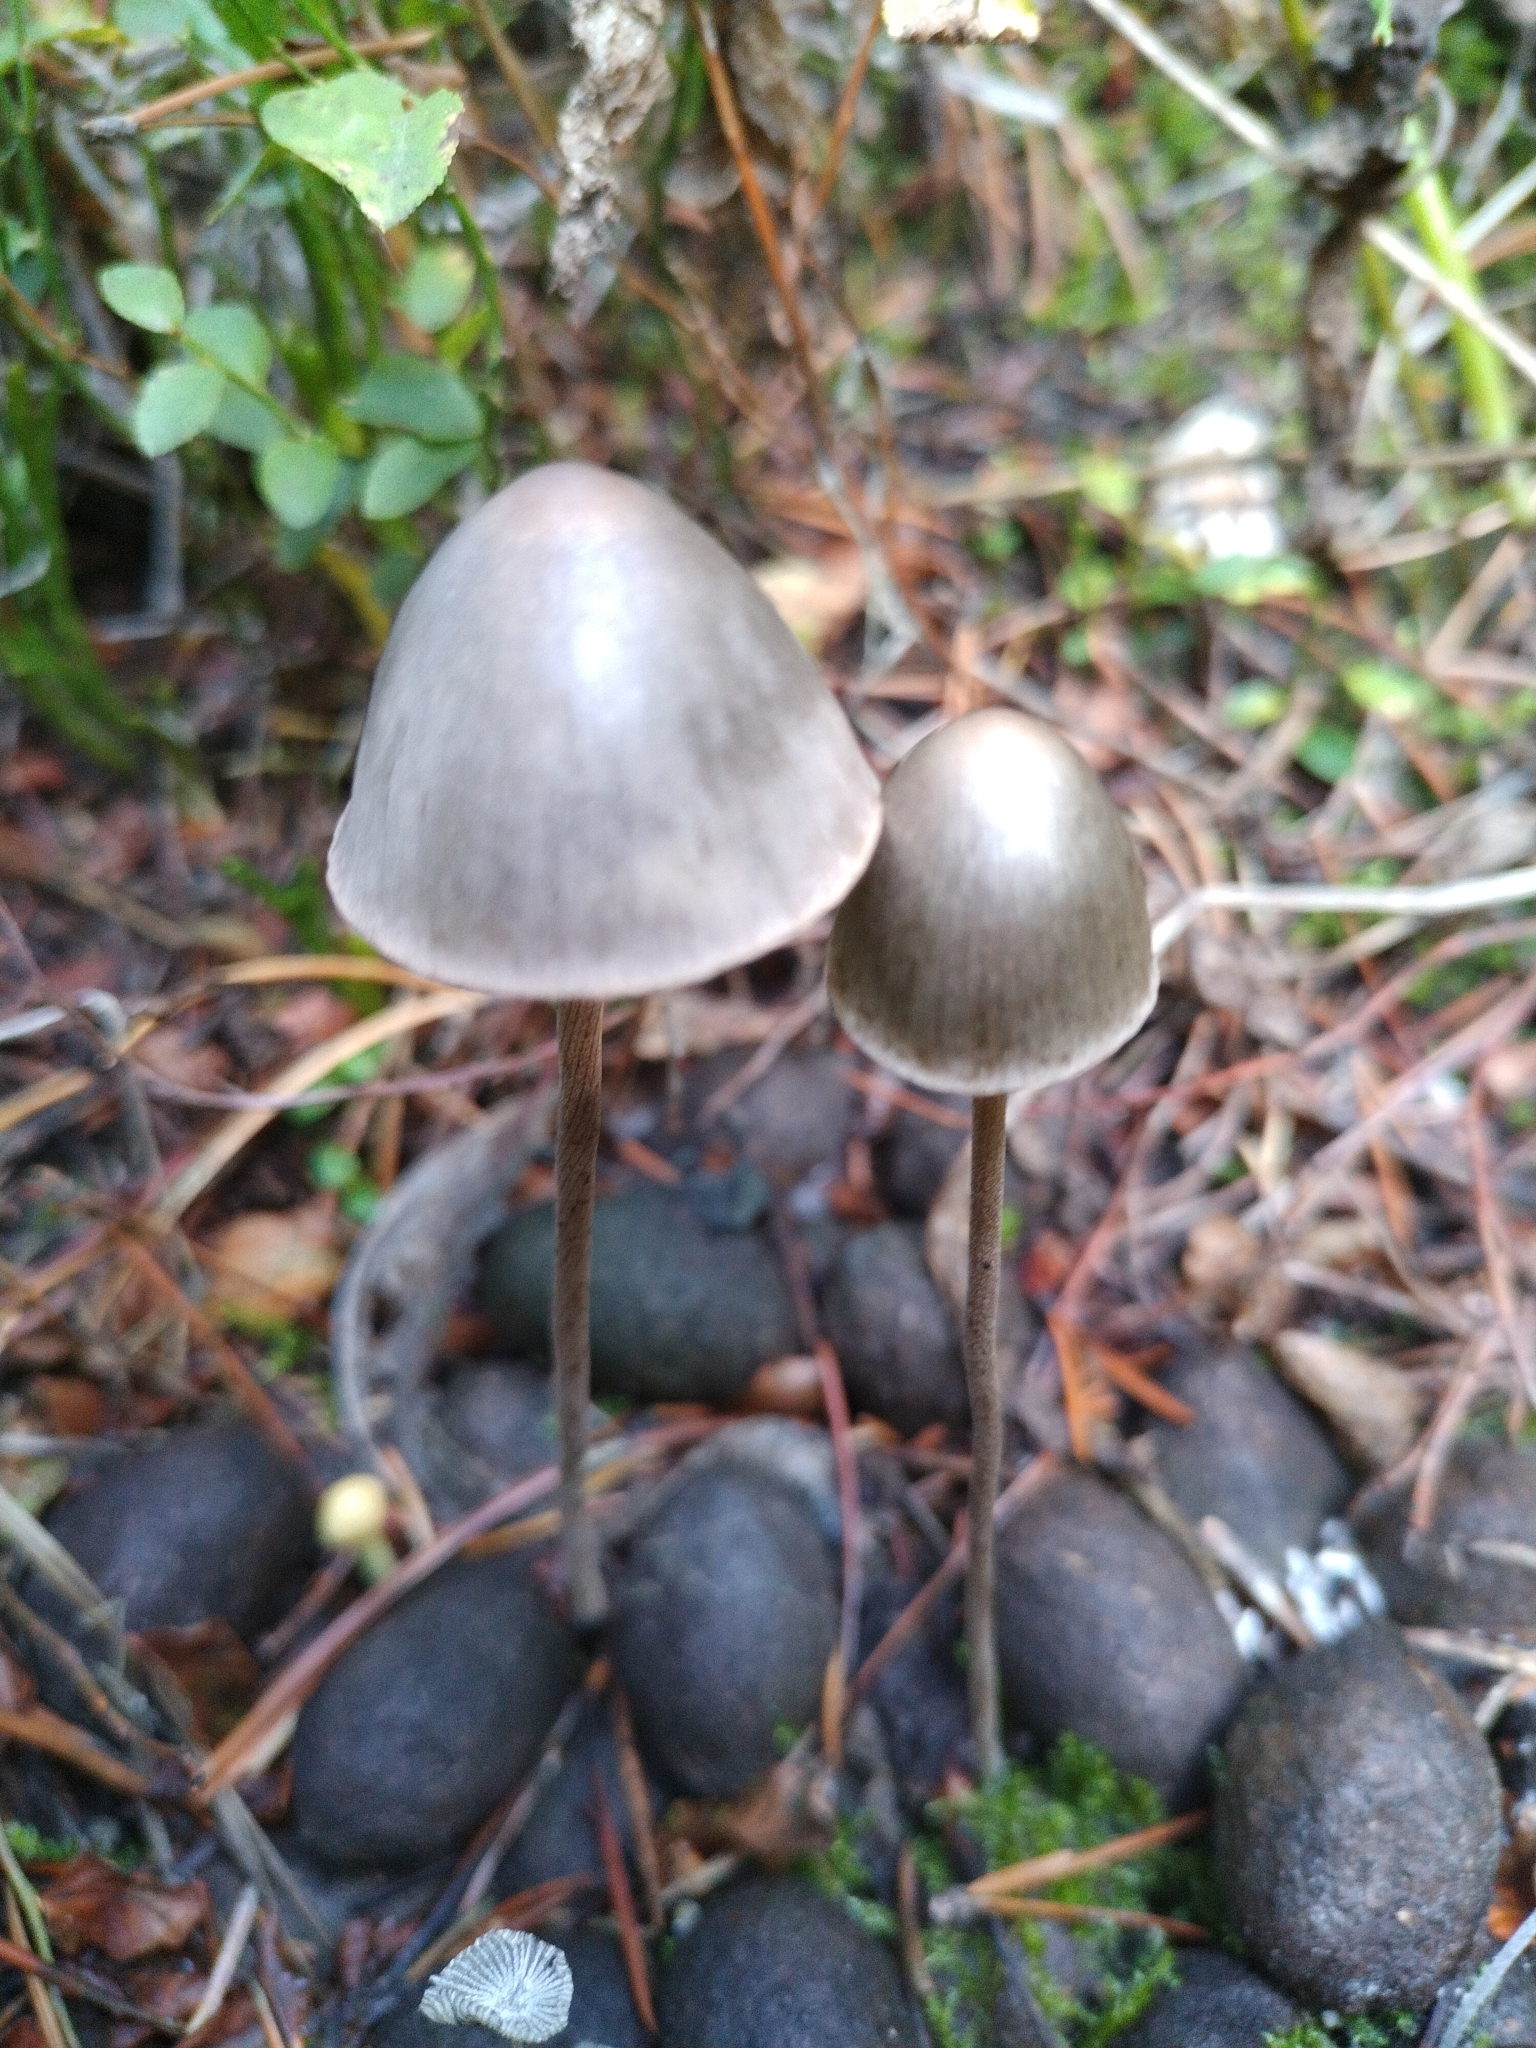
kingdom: Fungi
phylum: Basidiomycota
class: Agaricomycetes
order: Agaricales
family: Bolbitiaceae
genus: Panaeolus
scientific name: Panaeolus papilionaceus
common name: Petticoat mottlegill
